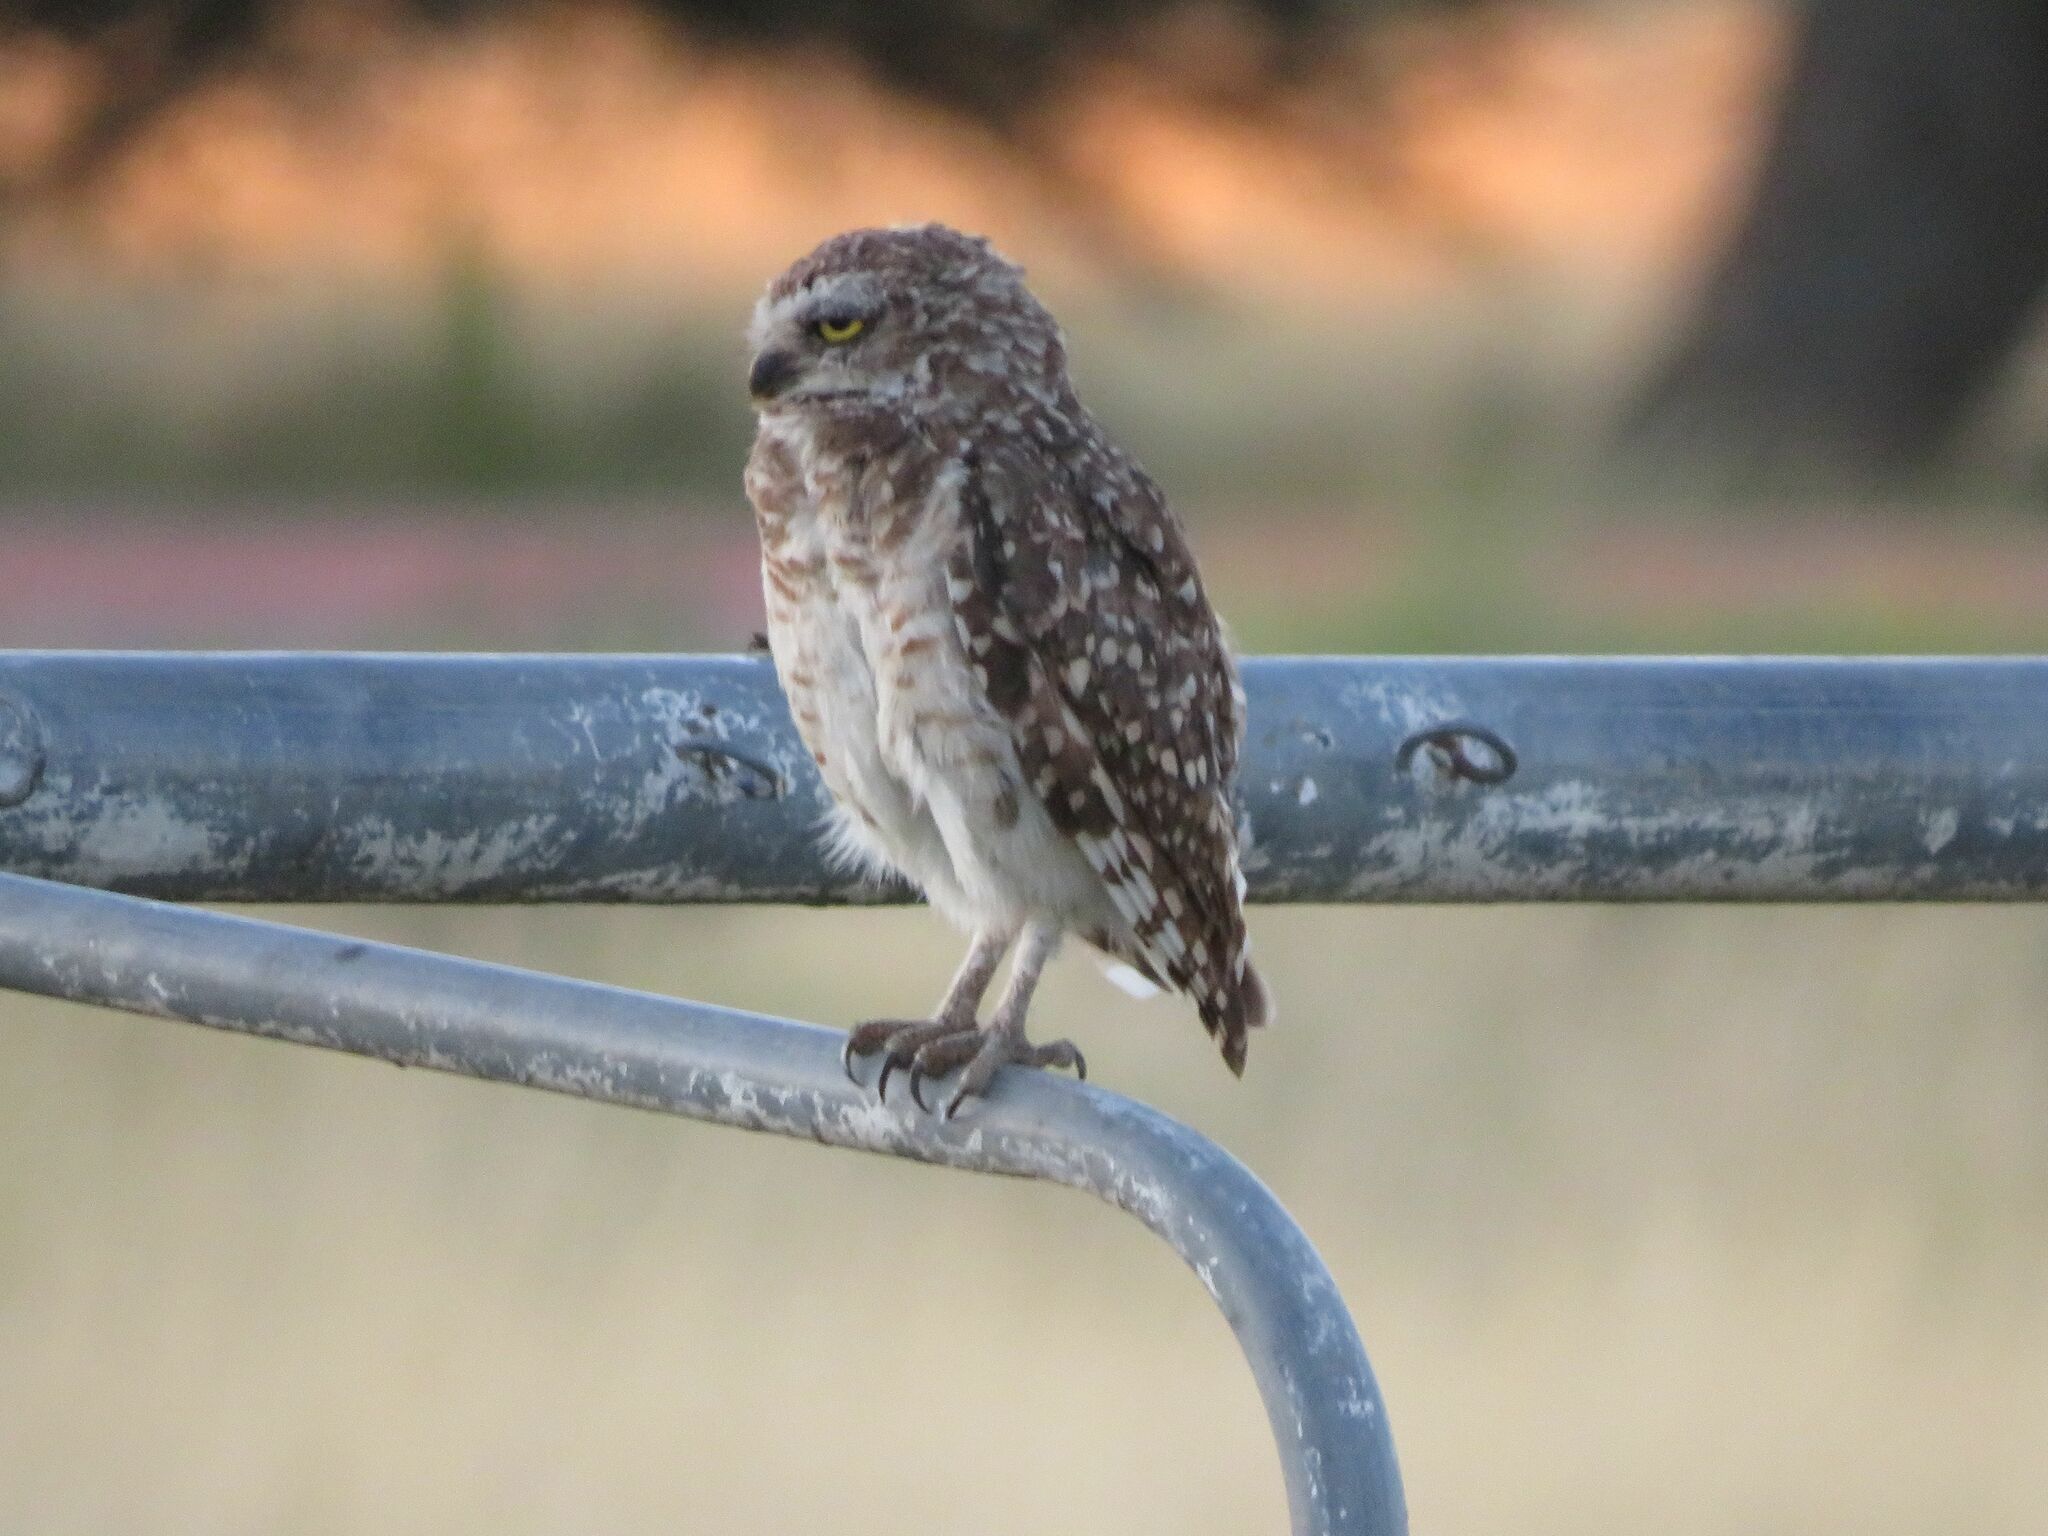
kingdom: Animalia
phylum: Chordata
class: Aves
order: Strigiformes
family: Strigidae
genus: Athene
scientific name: Athene cunicularia
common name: Burrowing owl
